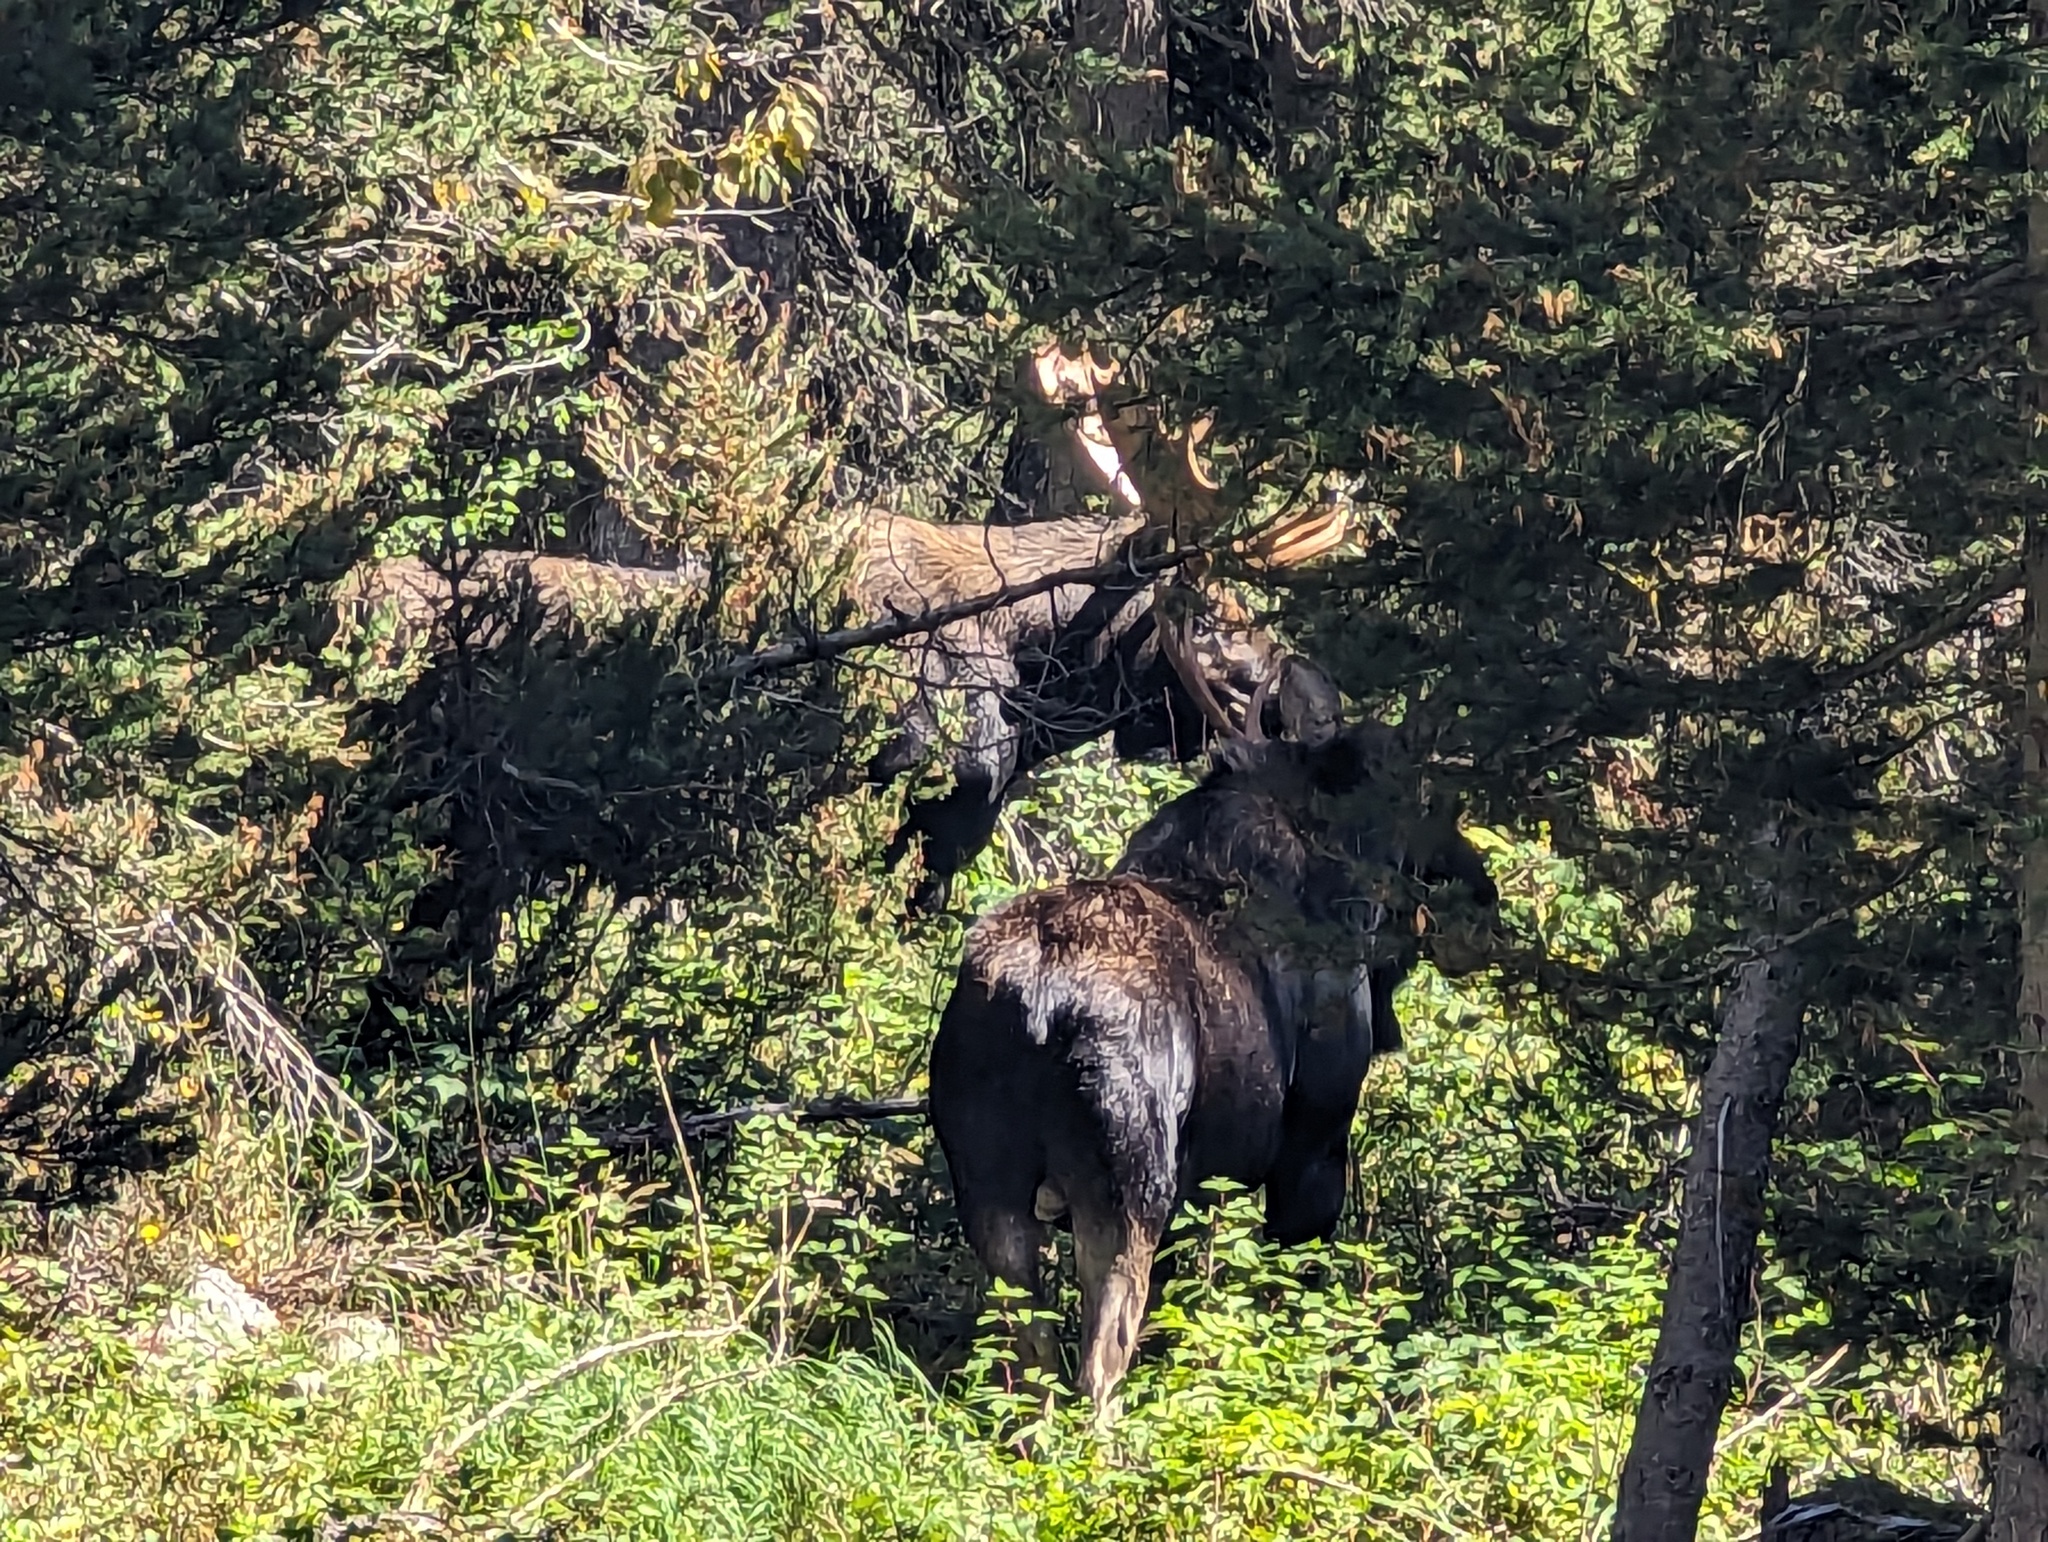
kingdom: Animalia
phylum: Chordata
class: Mammalia
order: Artiodactyla
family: Cervidae
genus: Alces
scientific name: Alces alces
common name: Moose
